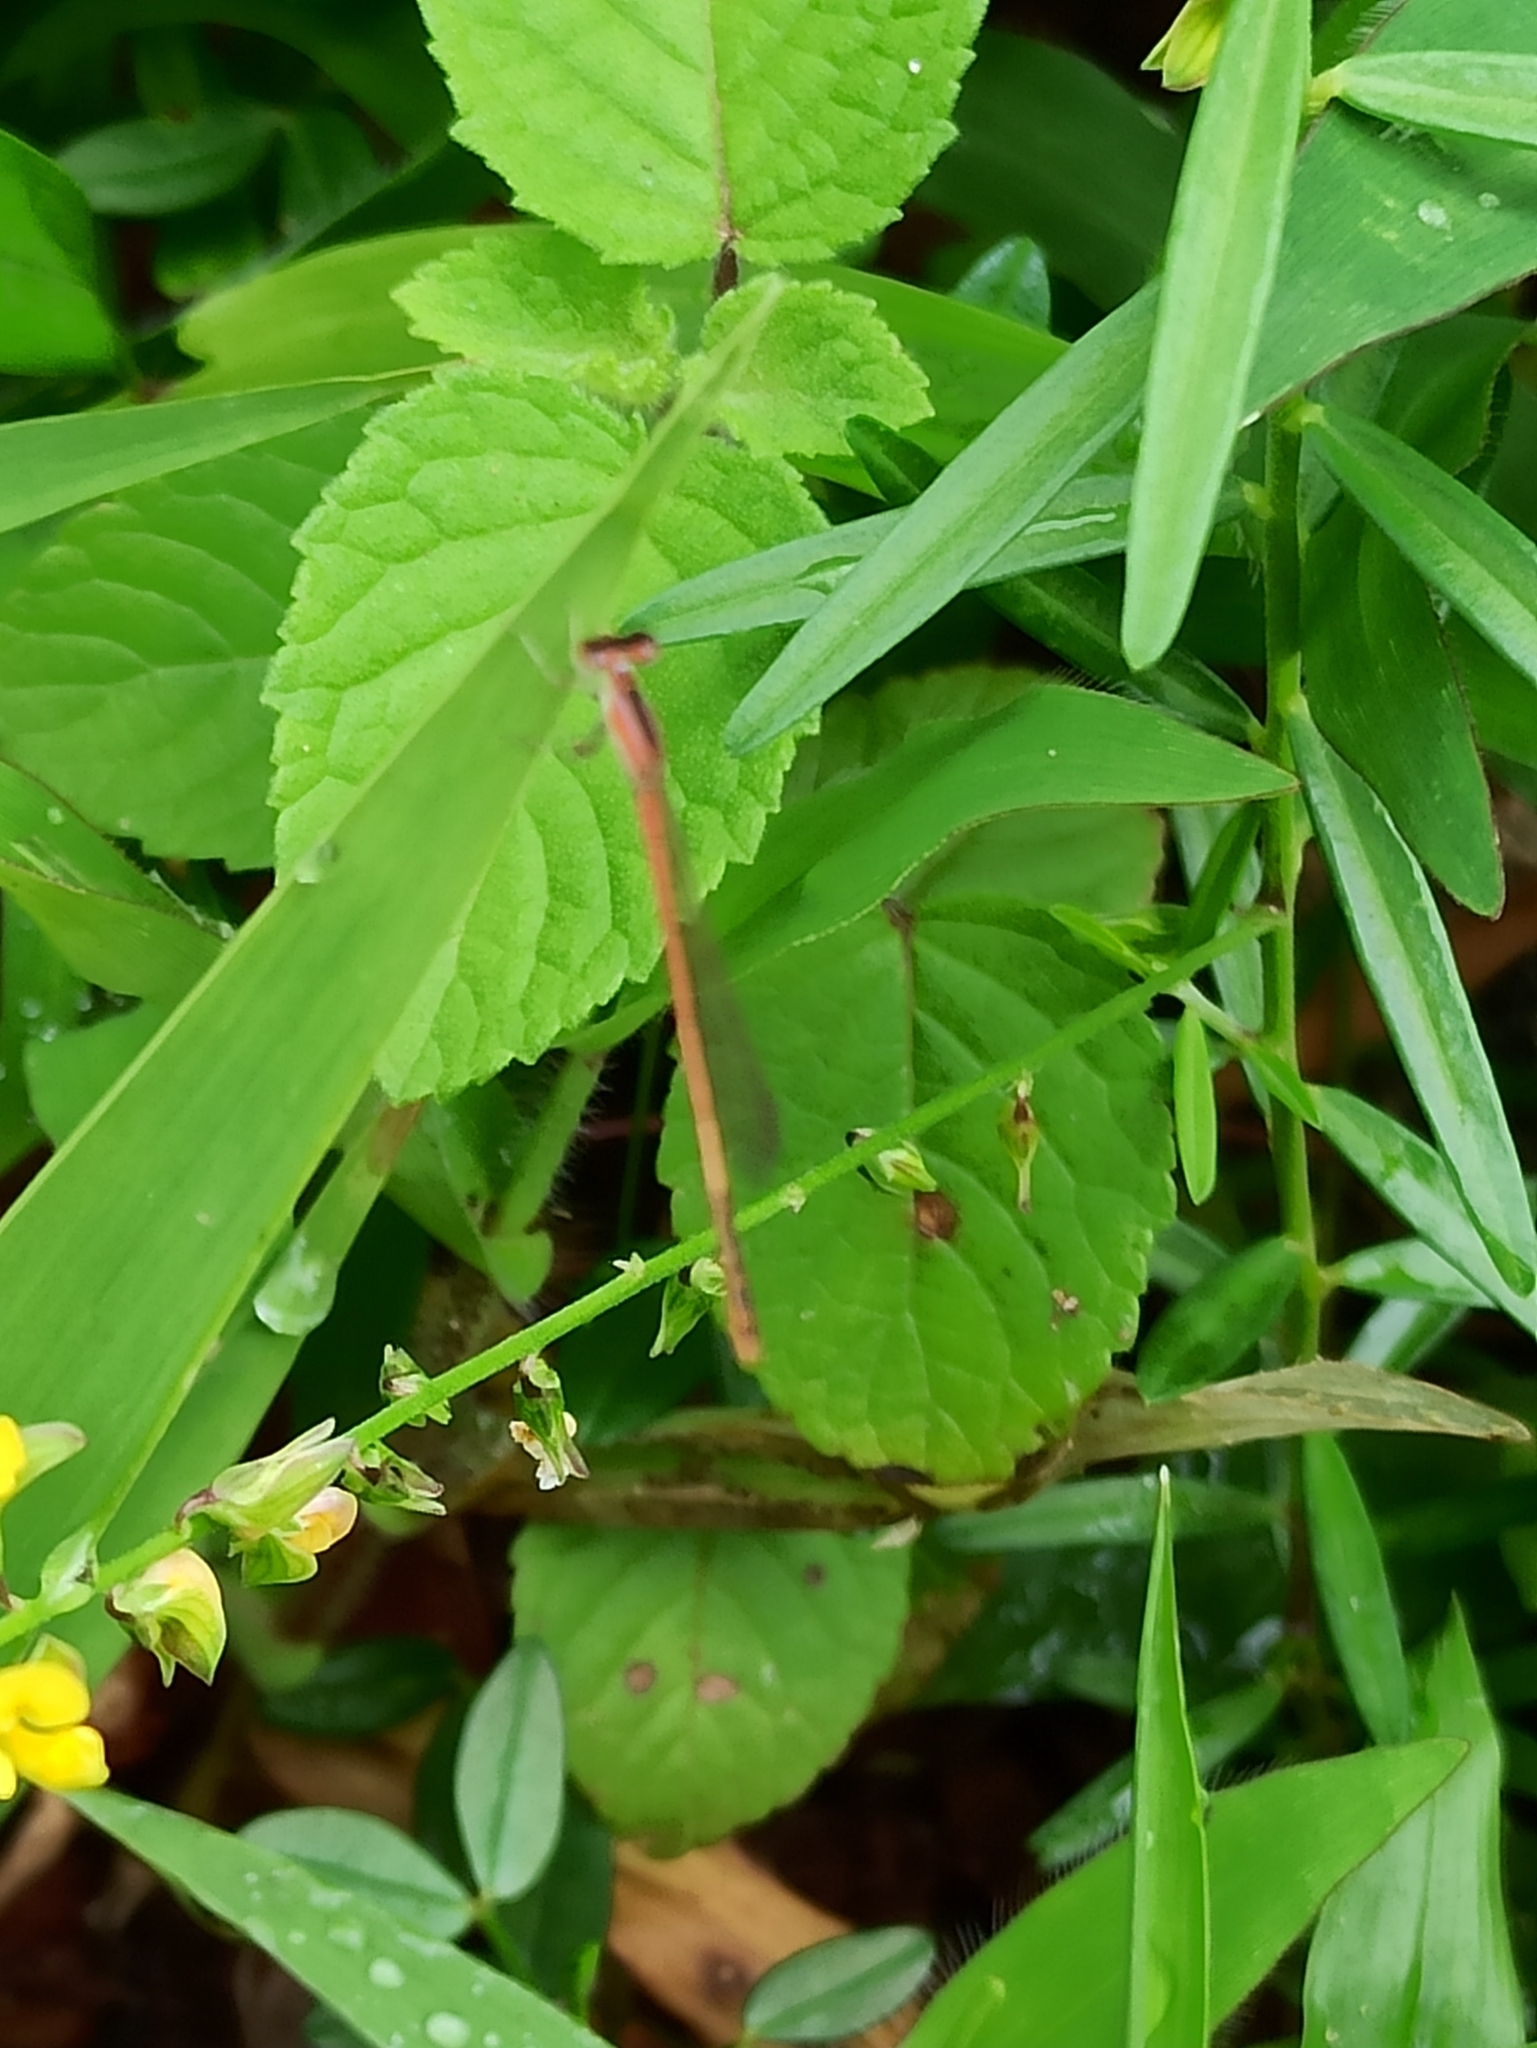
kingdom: Animalia
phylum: Arthropoda
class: Insecta
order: Odonata
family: Coenagrionidae
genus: Agriocnemis
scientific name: Agriocnemis pygmaea
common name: Pygmy wisp
